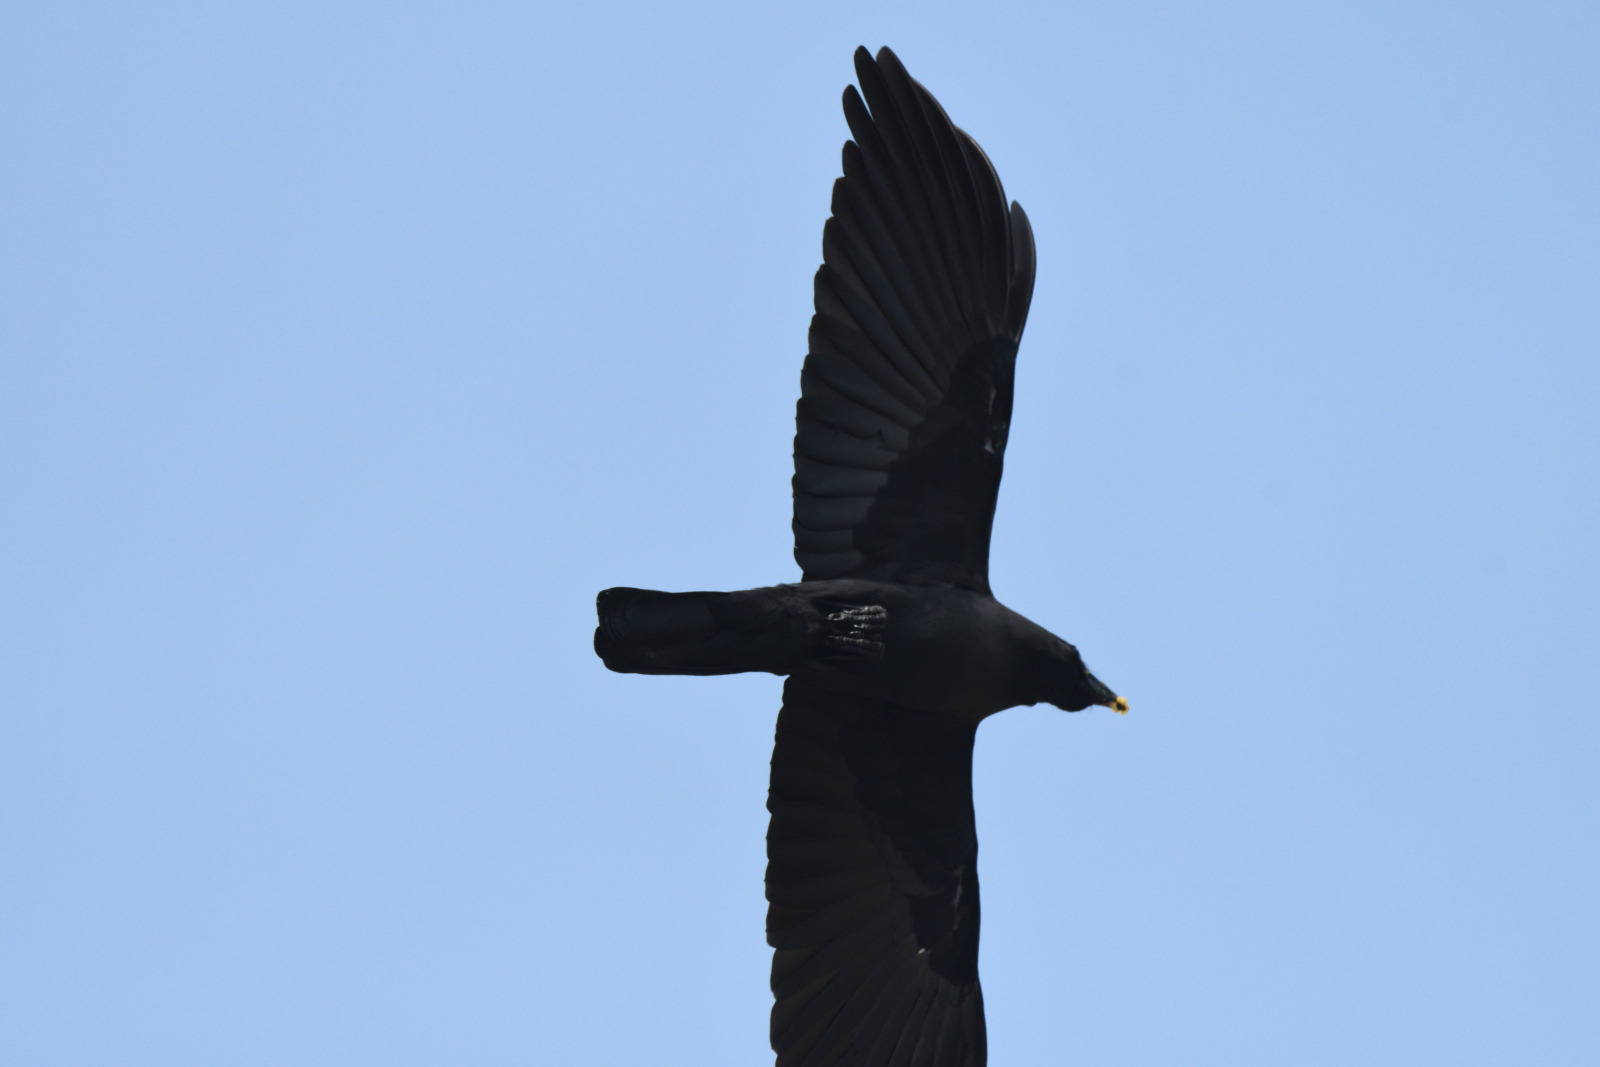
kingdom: Animalia
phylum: Chordata
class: Aves
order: Passeriformes
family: Corvidae
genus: Corvus
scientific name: Corvus macrorhynchos
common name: Large-billed crow
